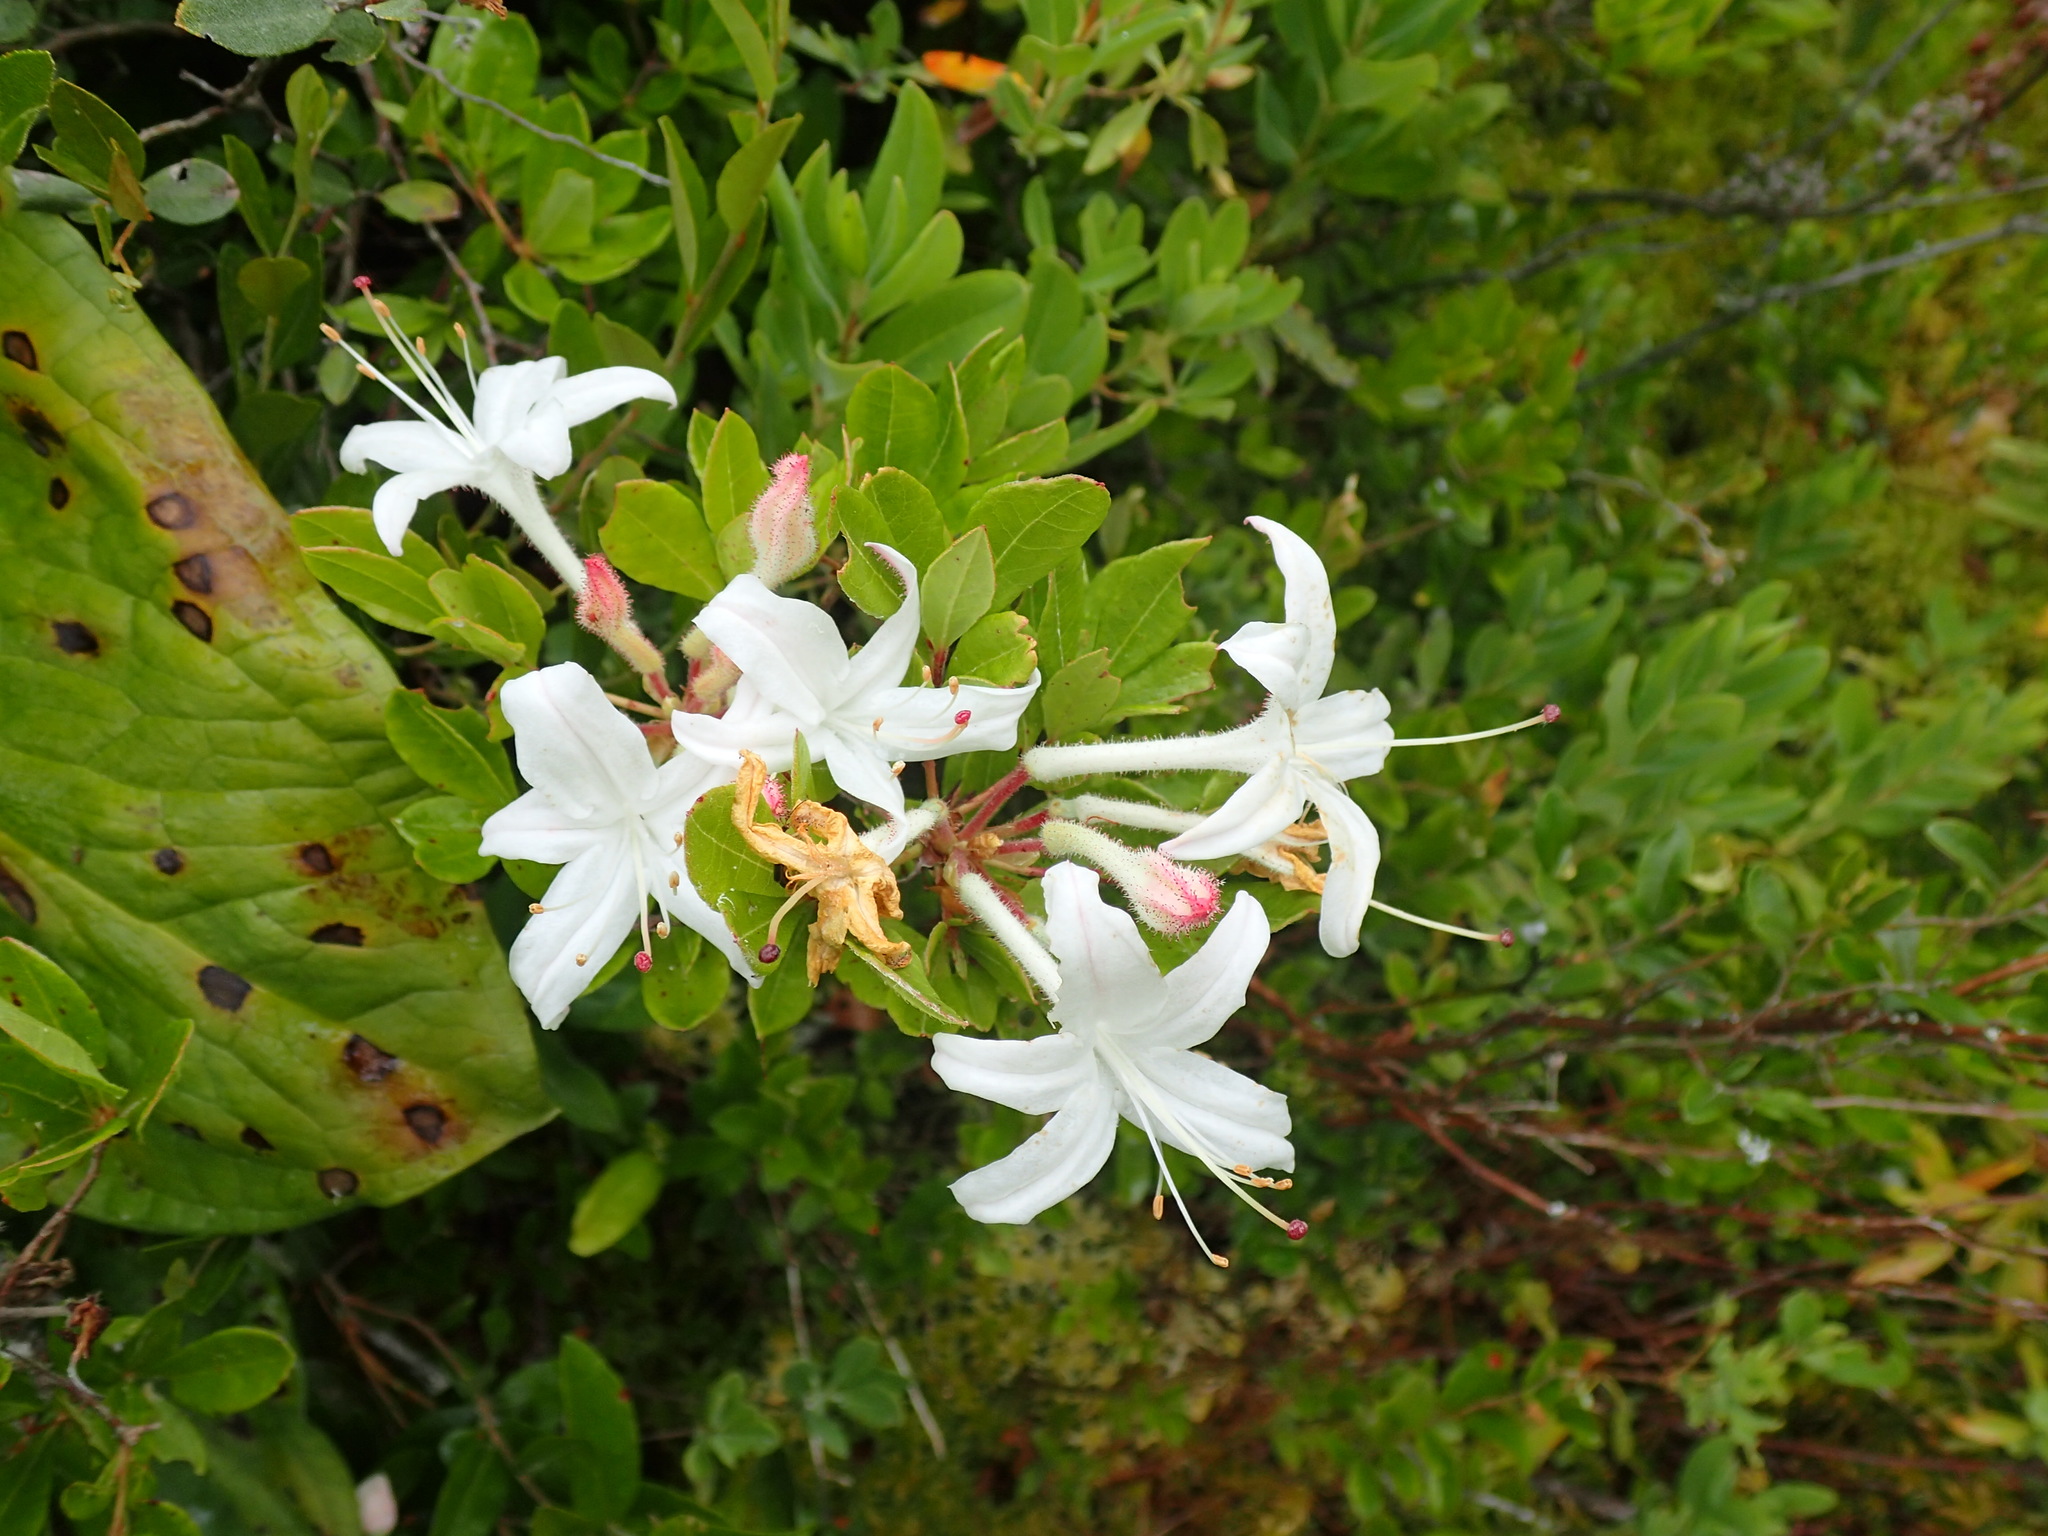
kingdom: Plantae
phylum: Tracheophyta
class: Magnoliopsida
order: Ericales
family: Ericaceae
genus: Rhododendron
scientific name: Rhododendron viscosum
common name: Clammy azalea
